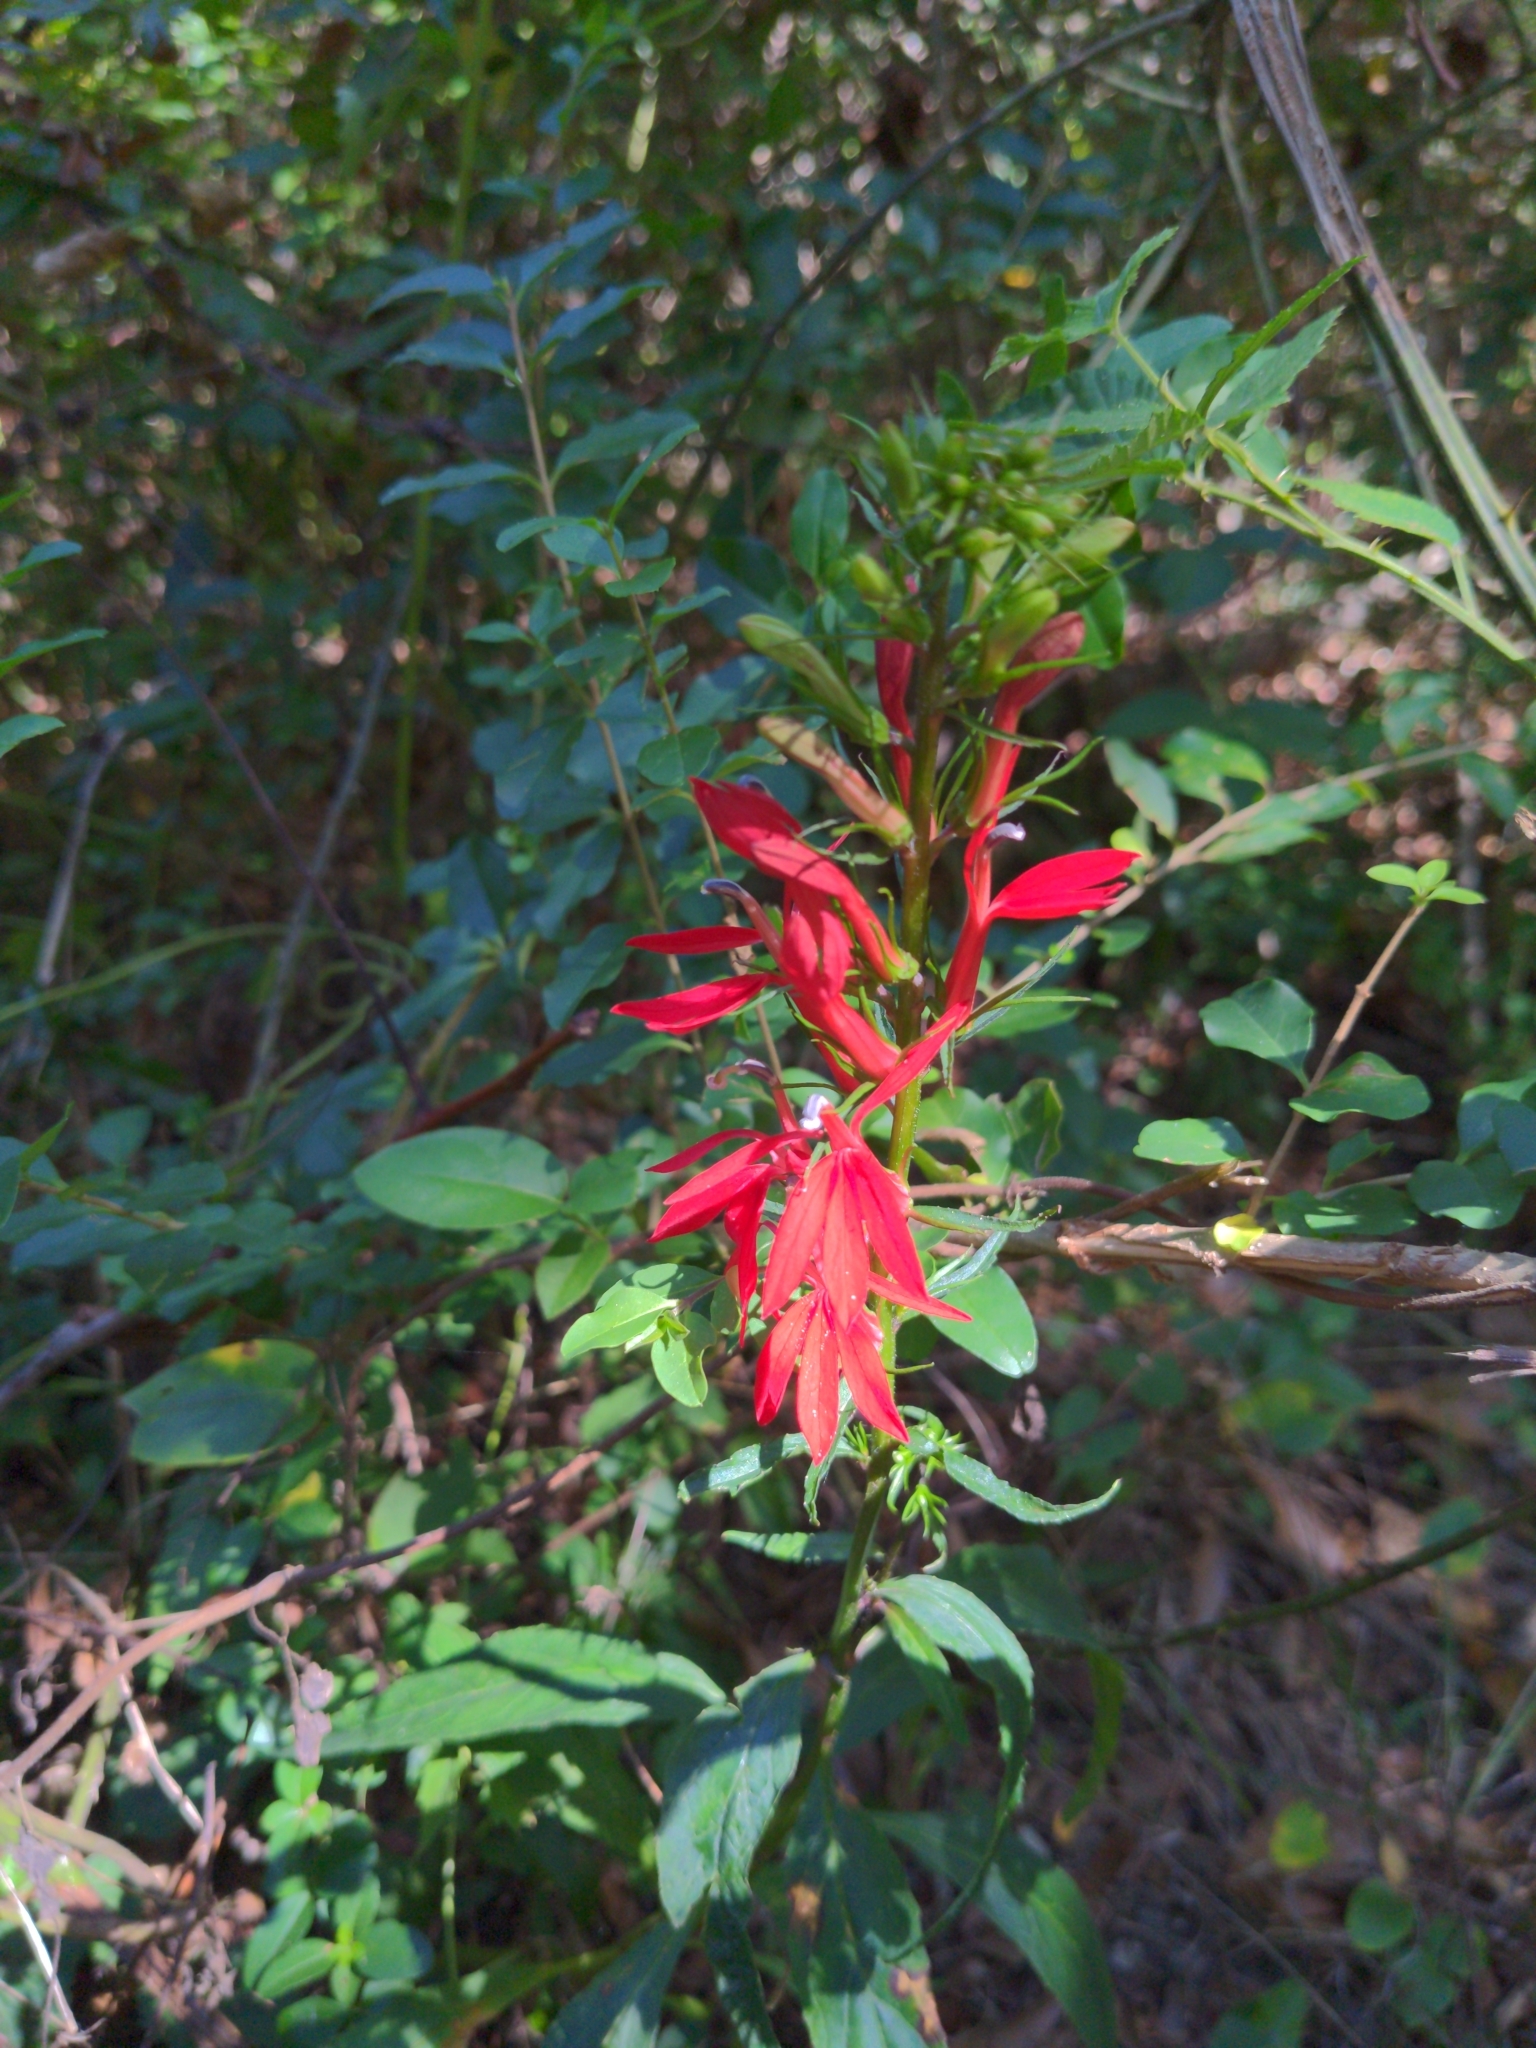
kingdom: Plantae
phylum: Tracheophyta
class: Magnoliopsida
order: Asterales
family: Campanulaceae
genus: Lobelia
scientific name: Lobelia cardinalis
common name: Cardinal flower
